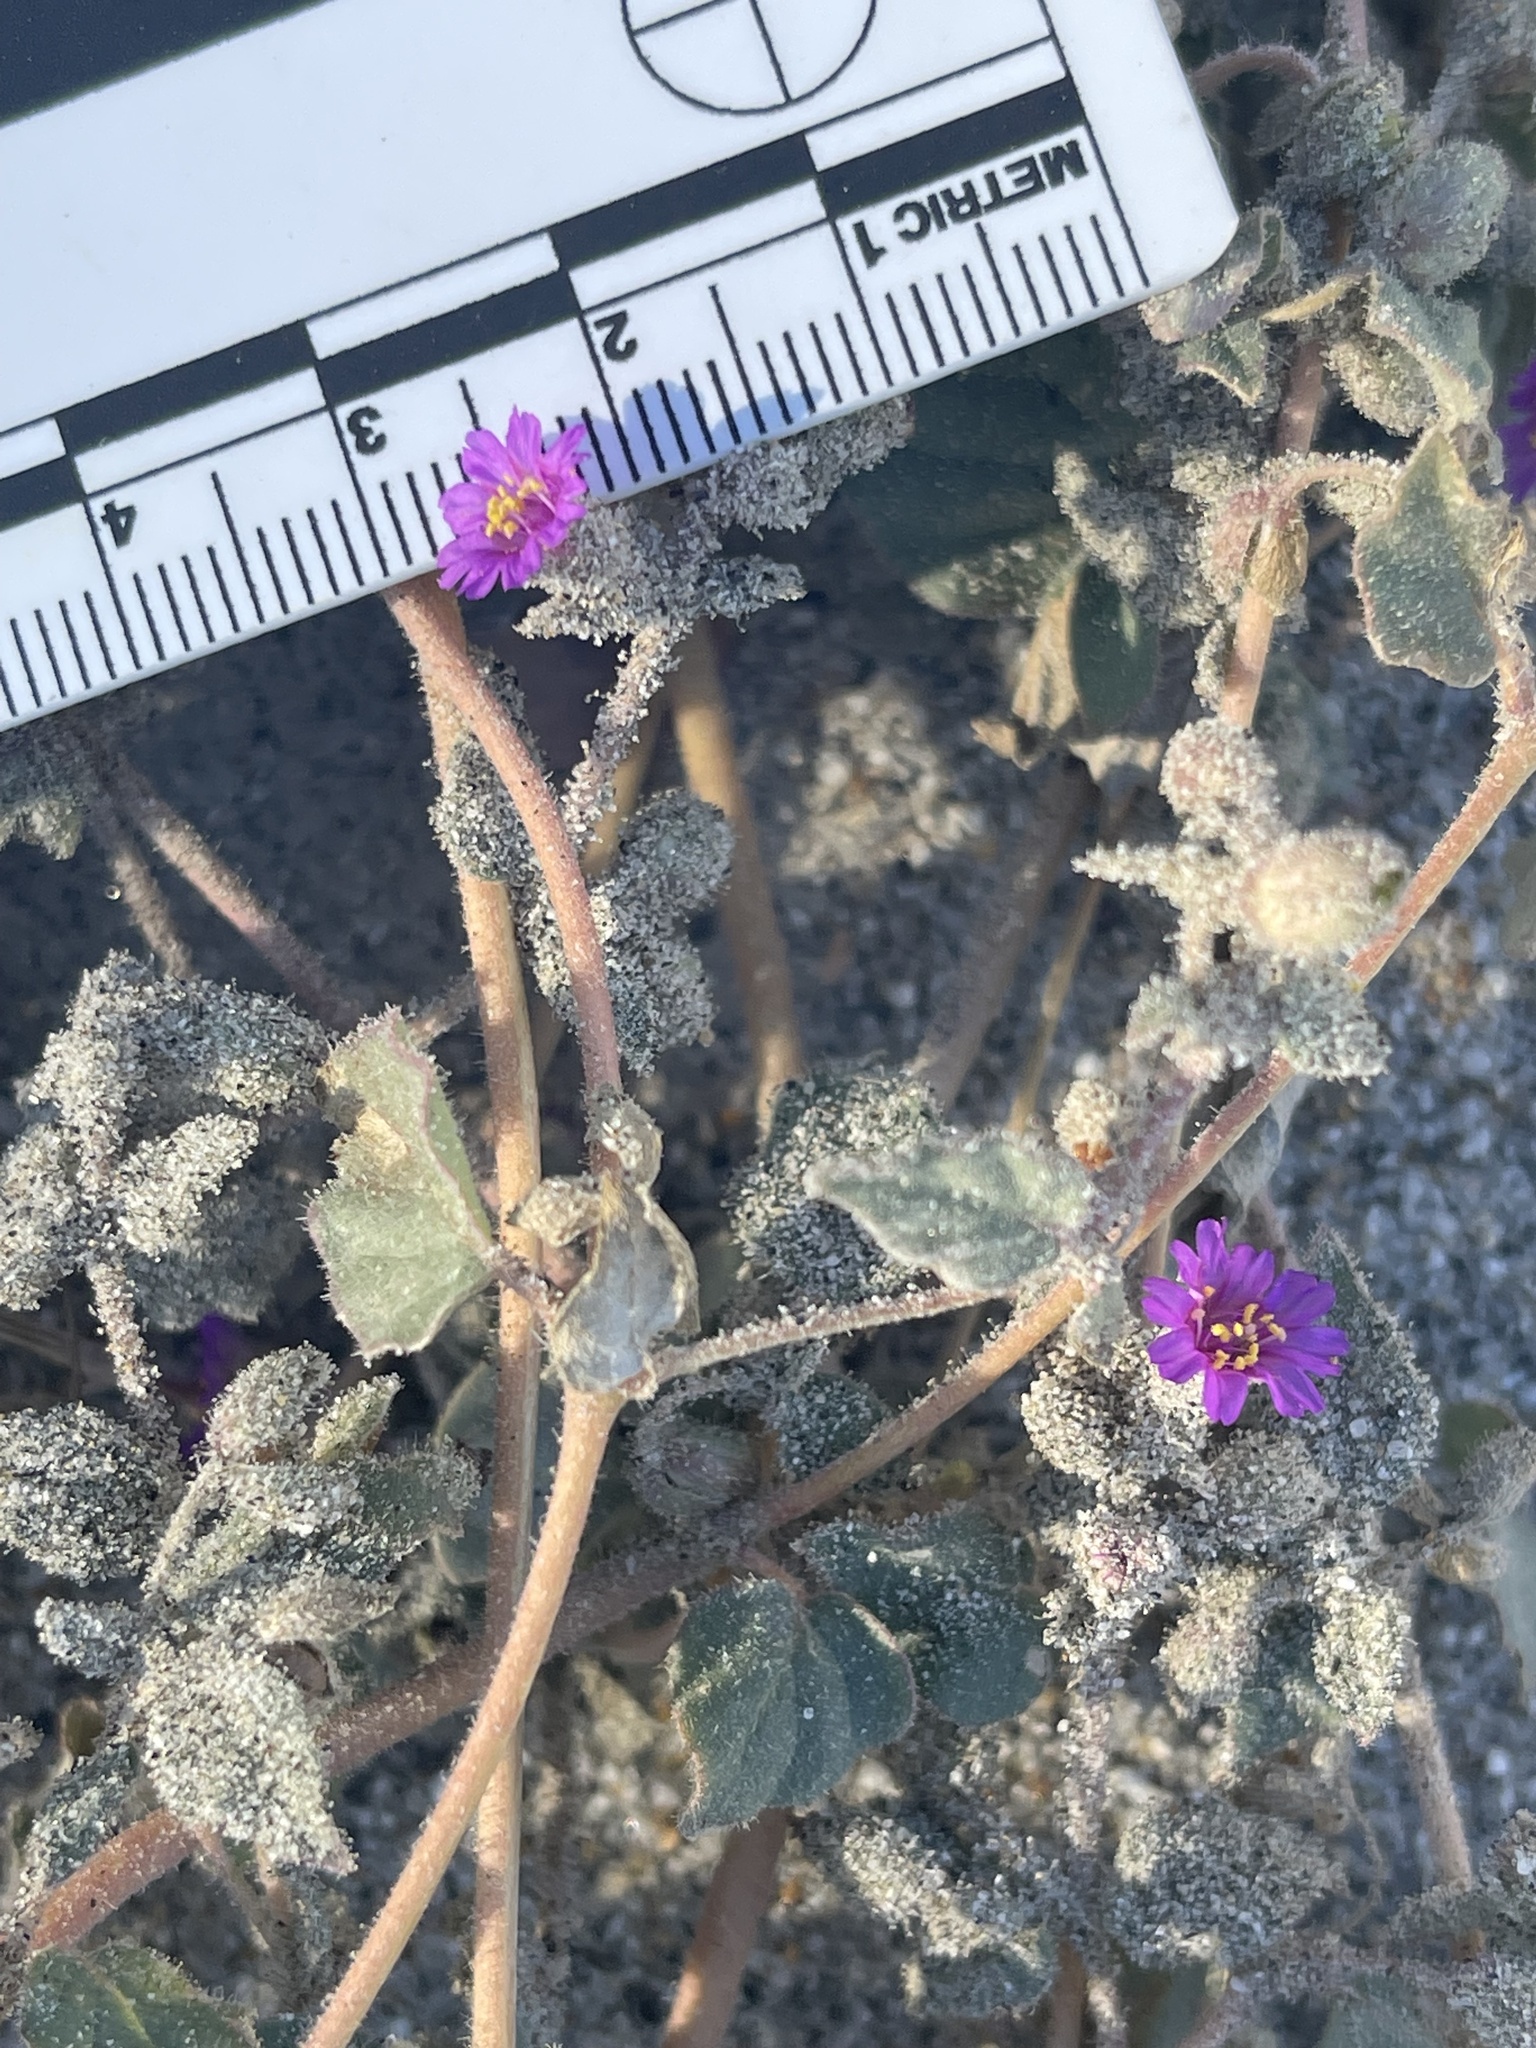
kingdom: Plantae
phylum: Tracheophyta
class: Magnoliopsida
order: Caryophyllales
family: Nyctaginaceae
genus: Allionia
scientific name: Allionia incarnata
